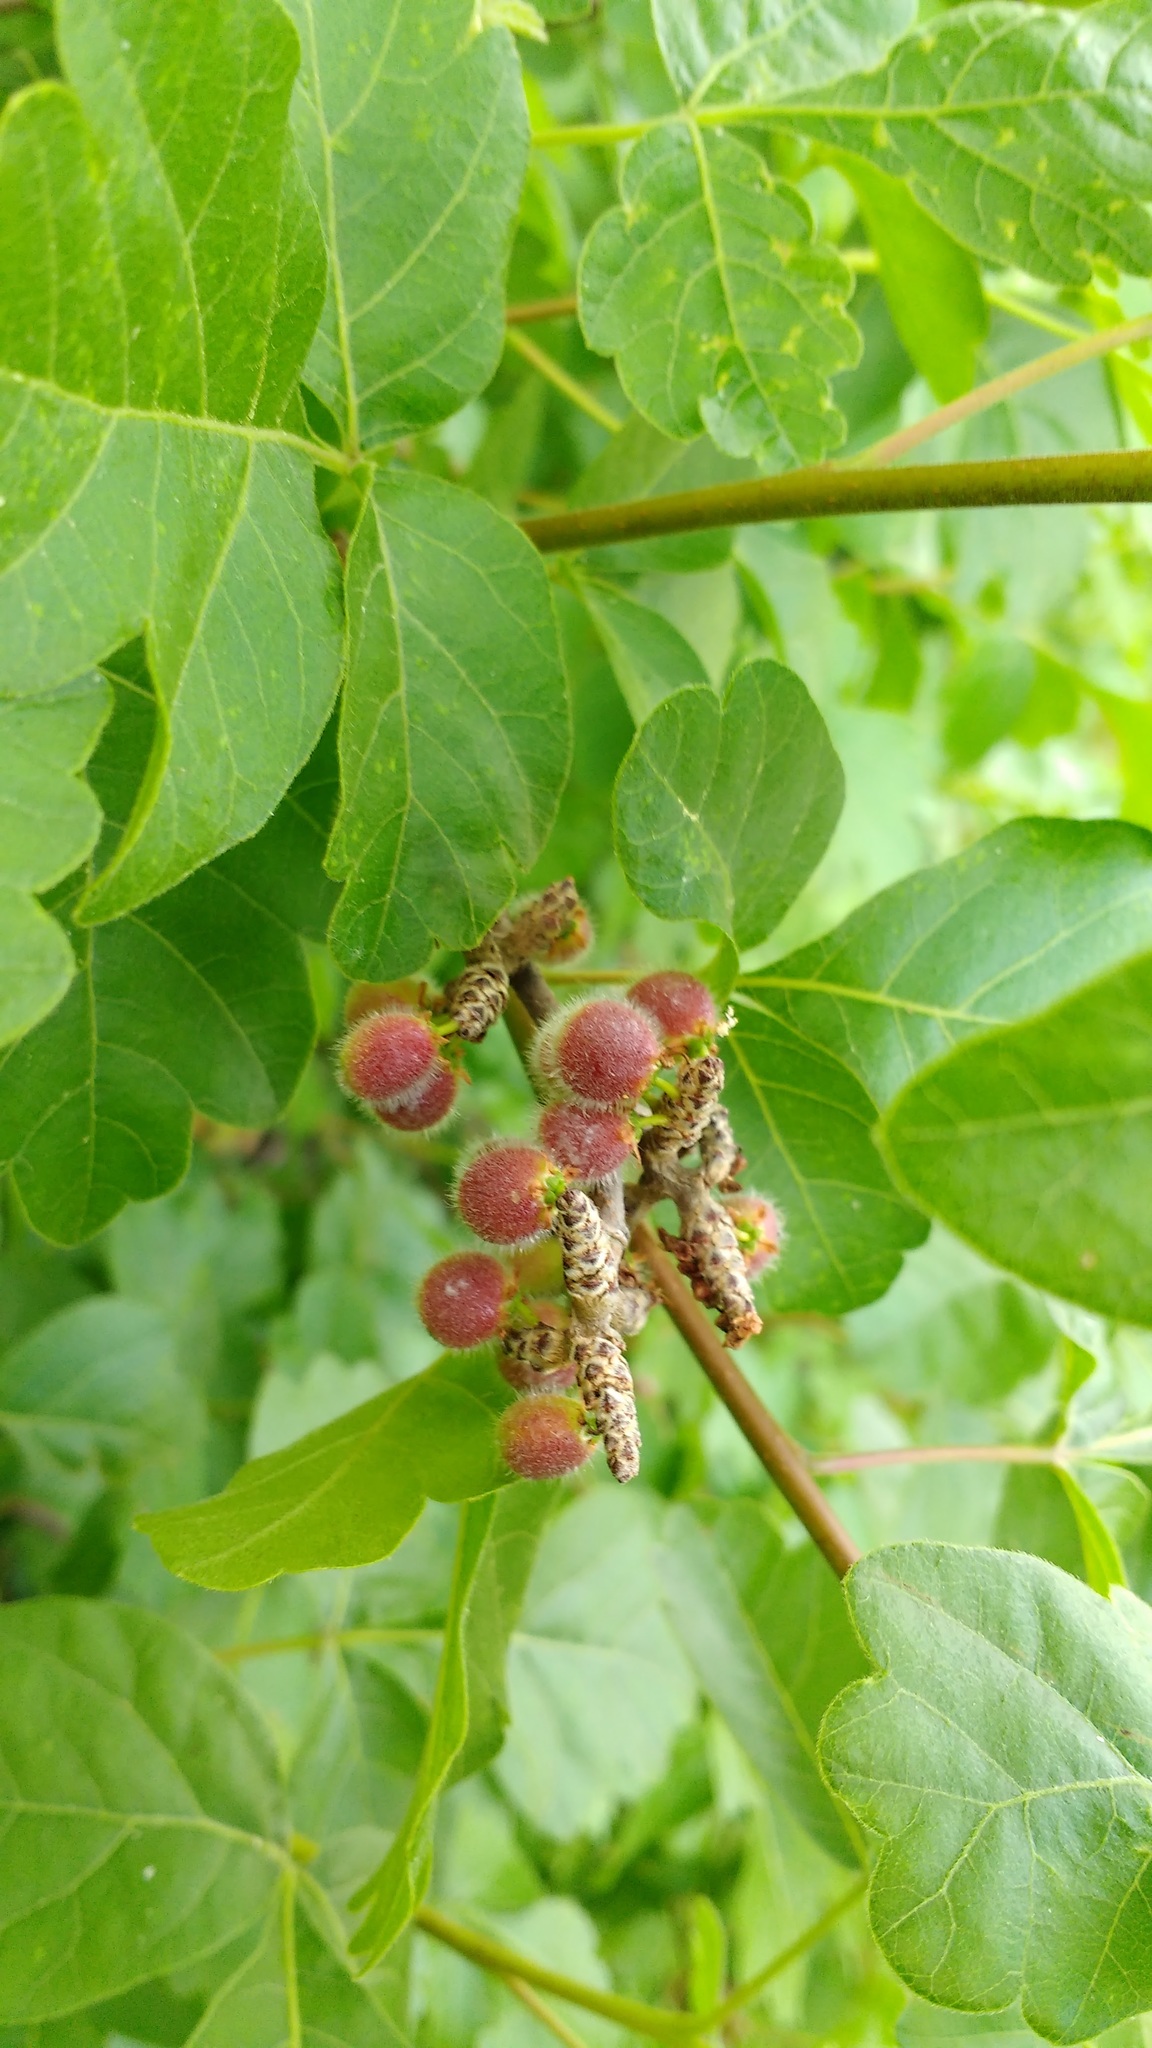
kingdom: Plantae
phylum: Tracheophyta
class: Magnoliopsida
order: Sapindales
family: Anacardiaceae
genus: Rhus
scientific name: Rhus aromatica
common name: Aromatic sumac
